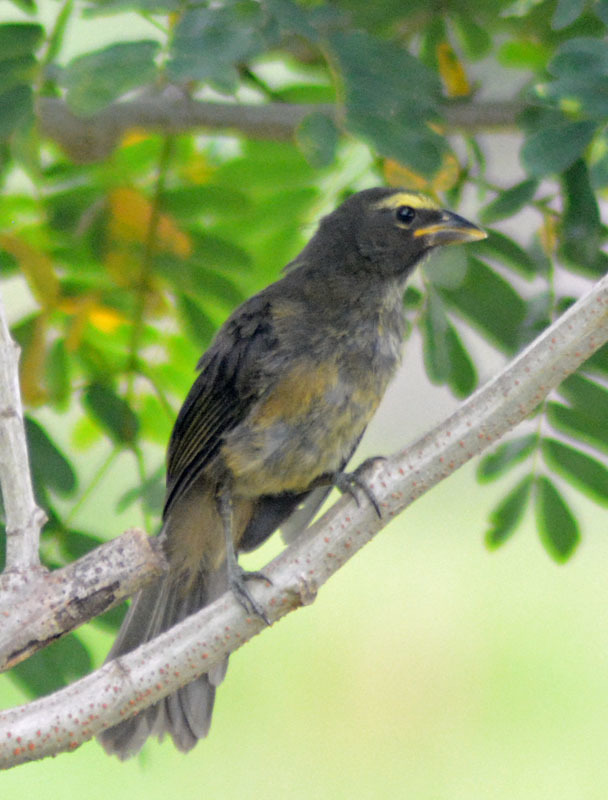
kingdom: Animalia
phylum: Chordata
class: Aves
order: Passeriformes
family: Thraupidae
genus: Saltator
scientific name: Saltator grandis
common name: Cinnamon-bellied saltator
